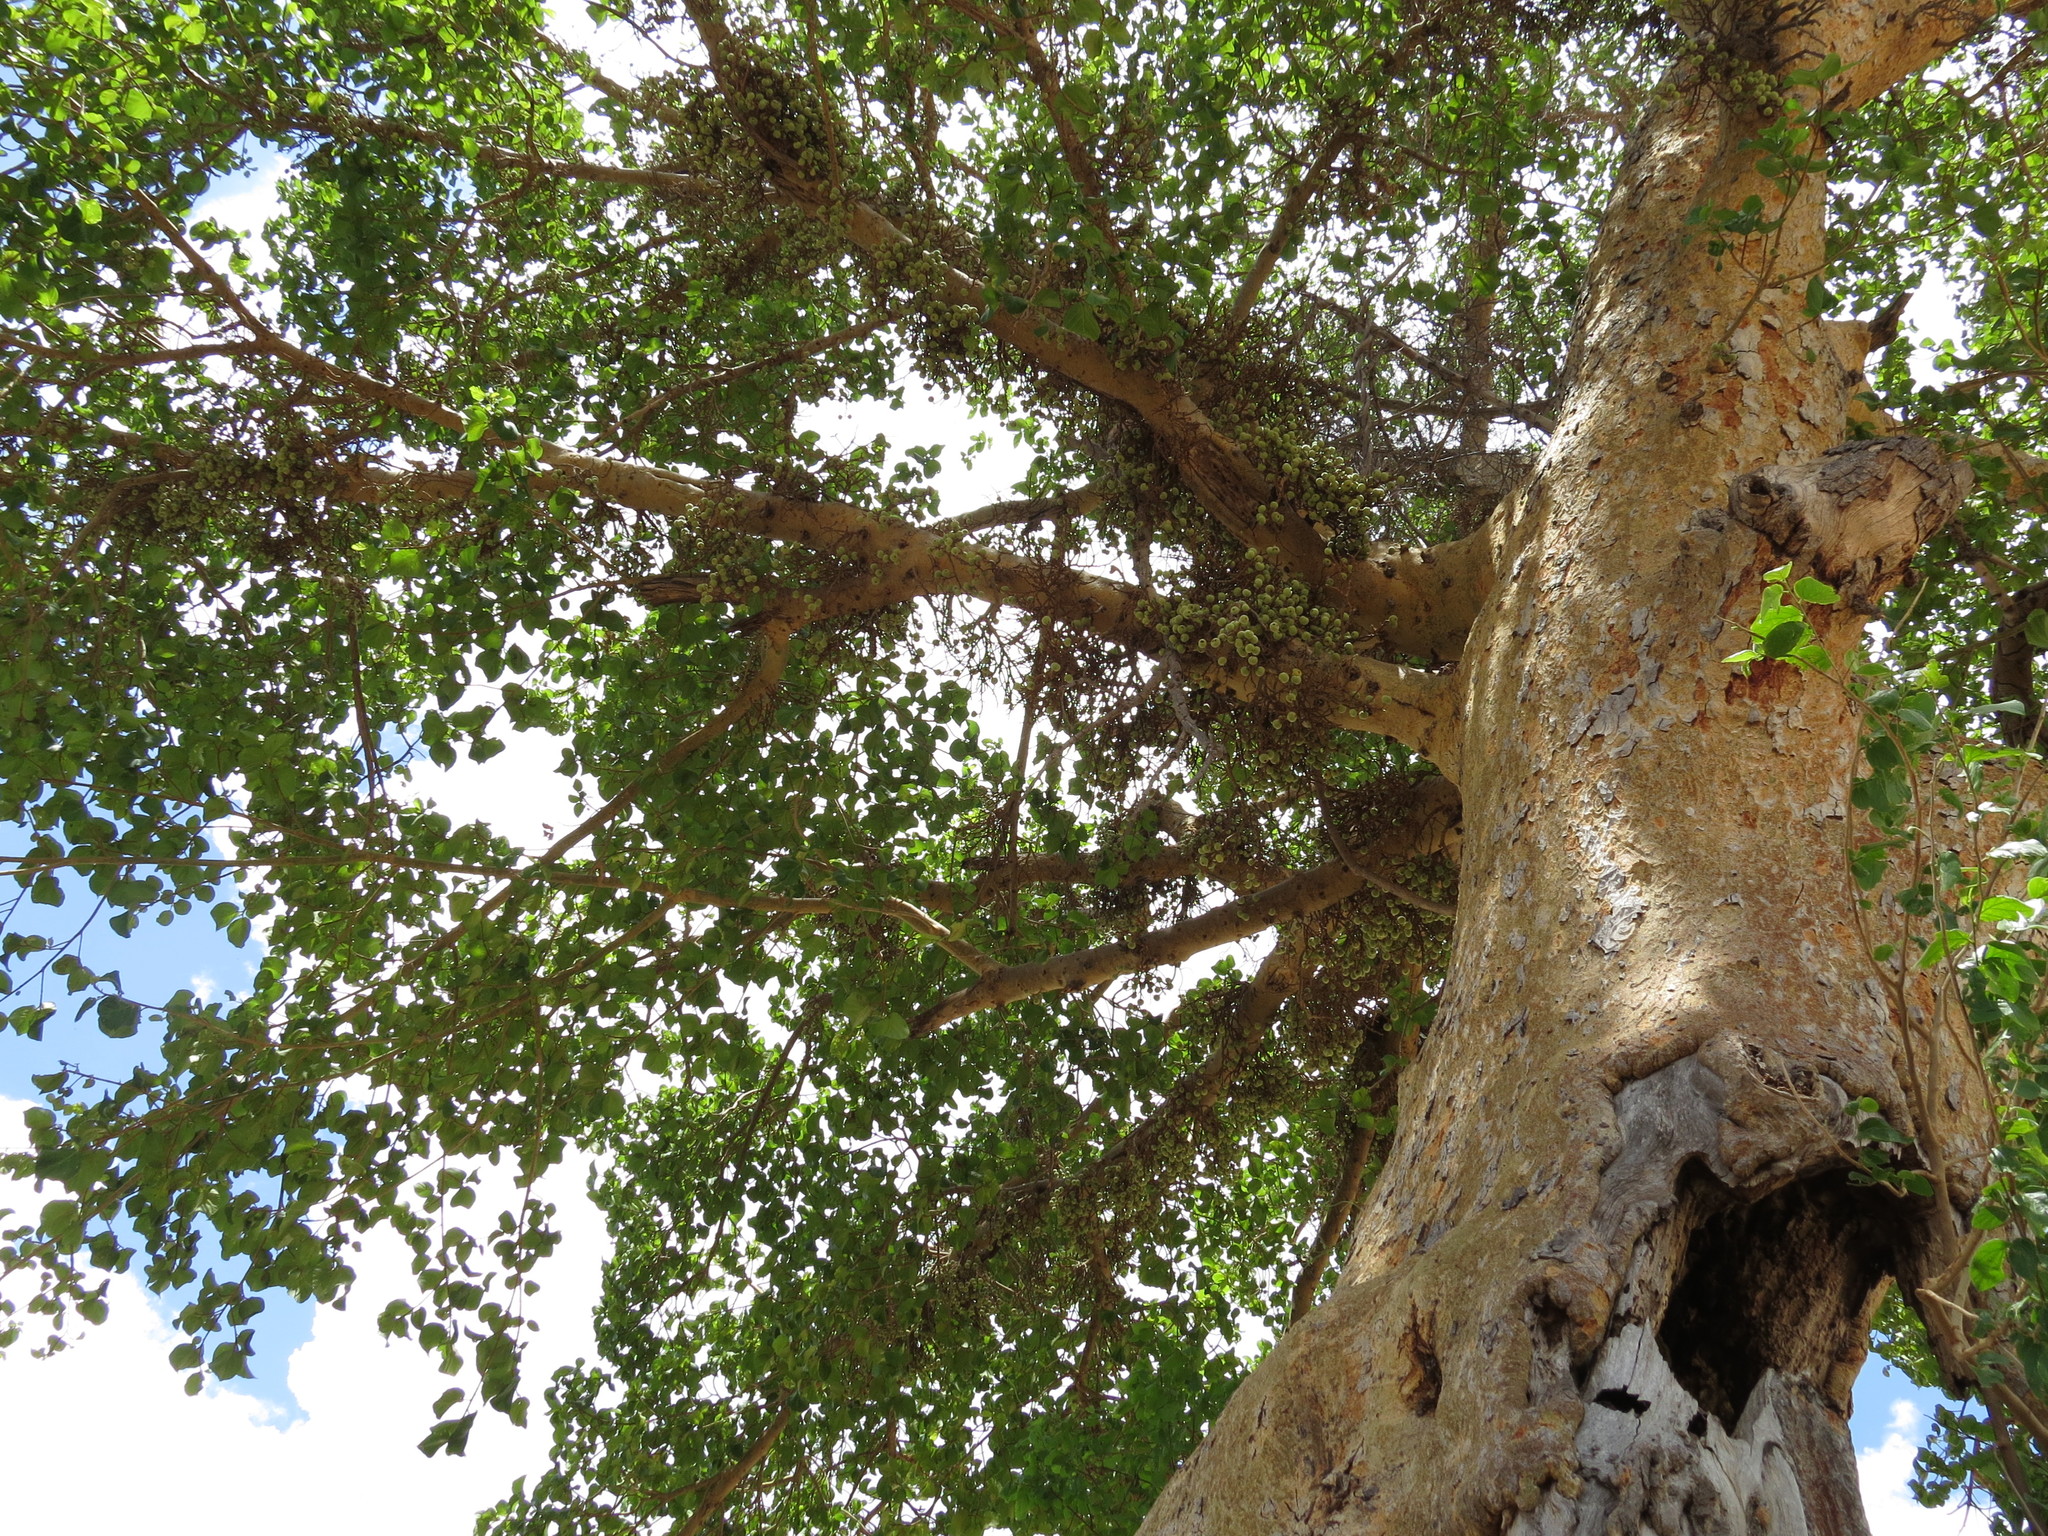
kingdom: Plantae
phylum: Tracheophyta
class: Magnoliopsida
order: Rosales
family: Moraceae
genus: Ficus
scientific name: Ficus sycomorus
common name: Sycomore
